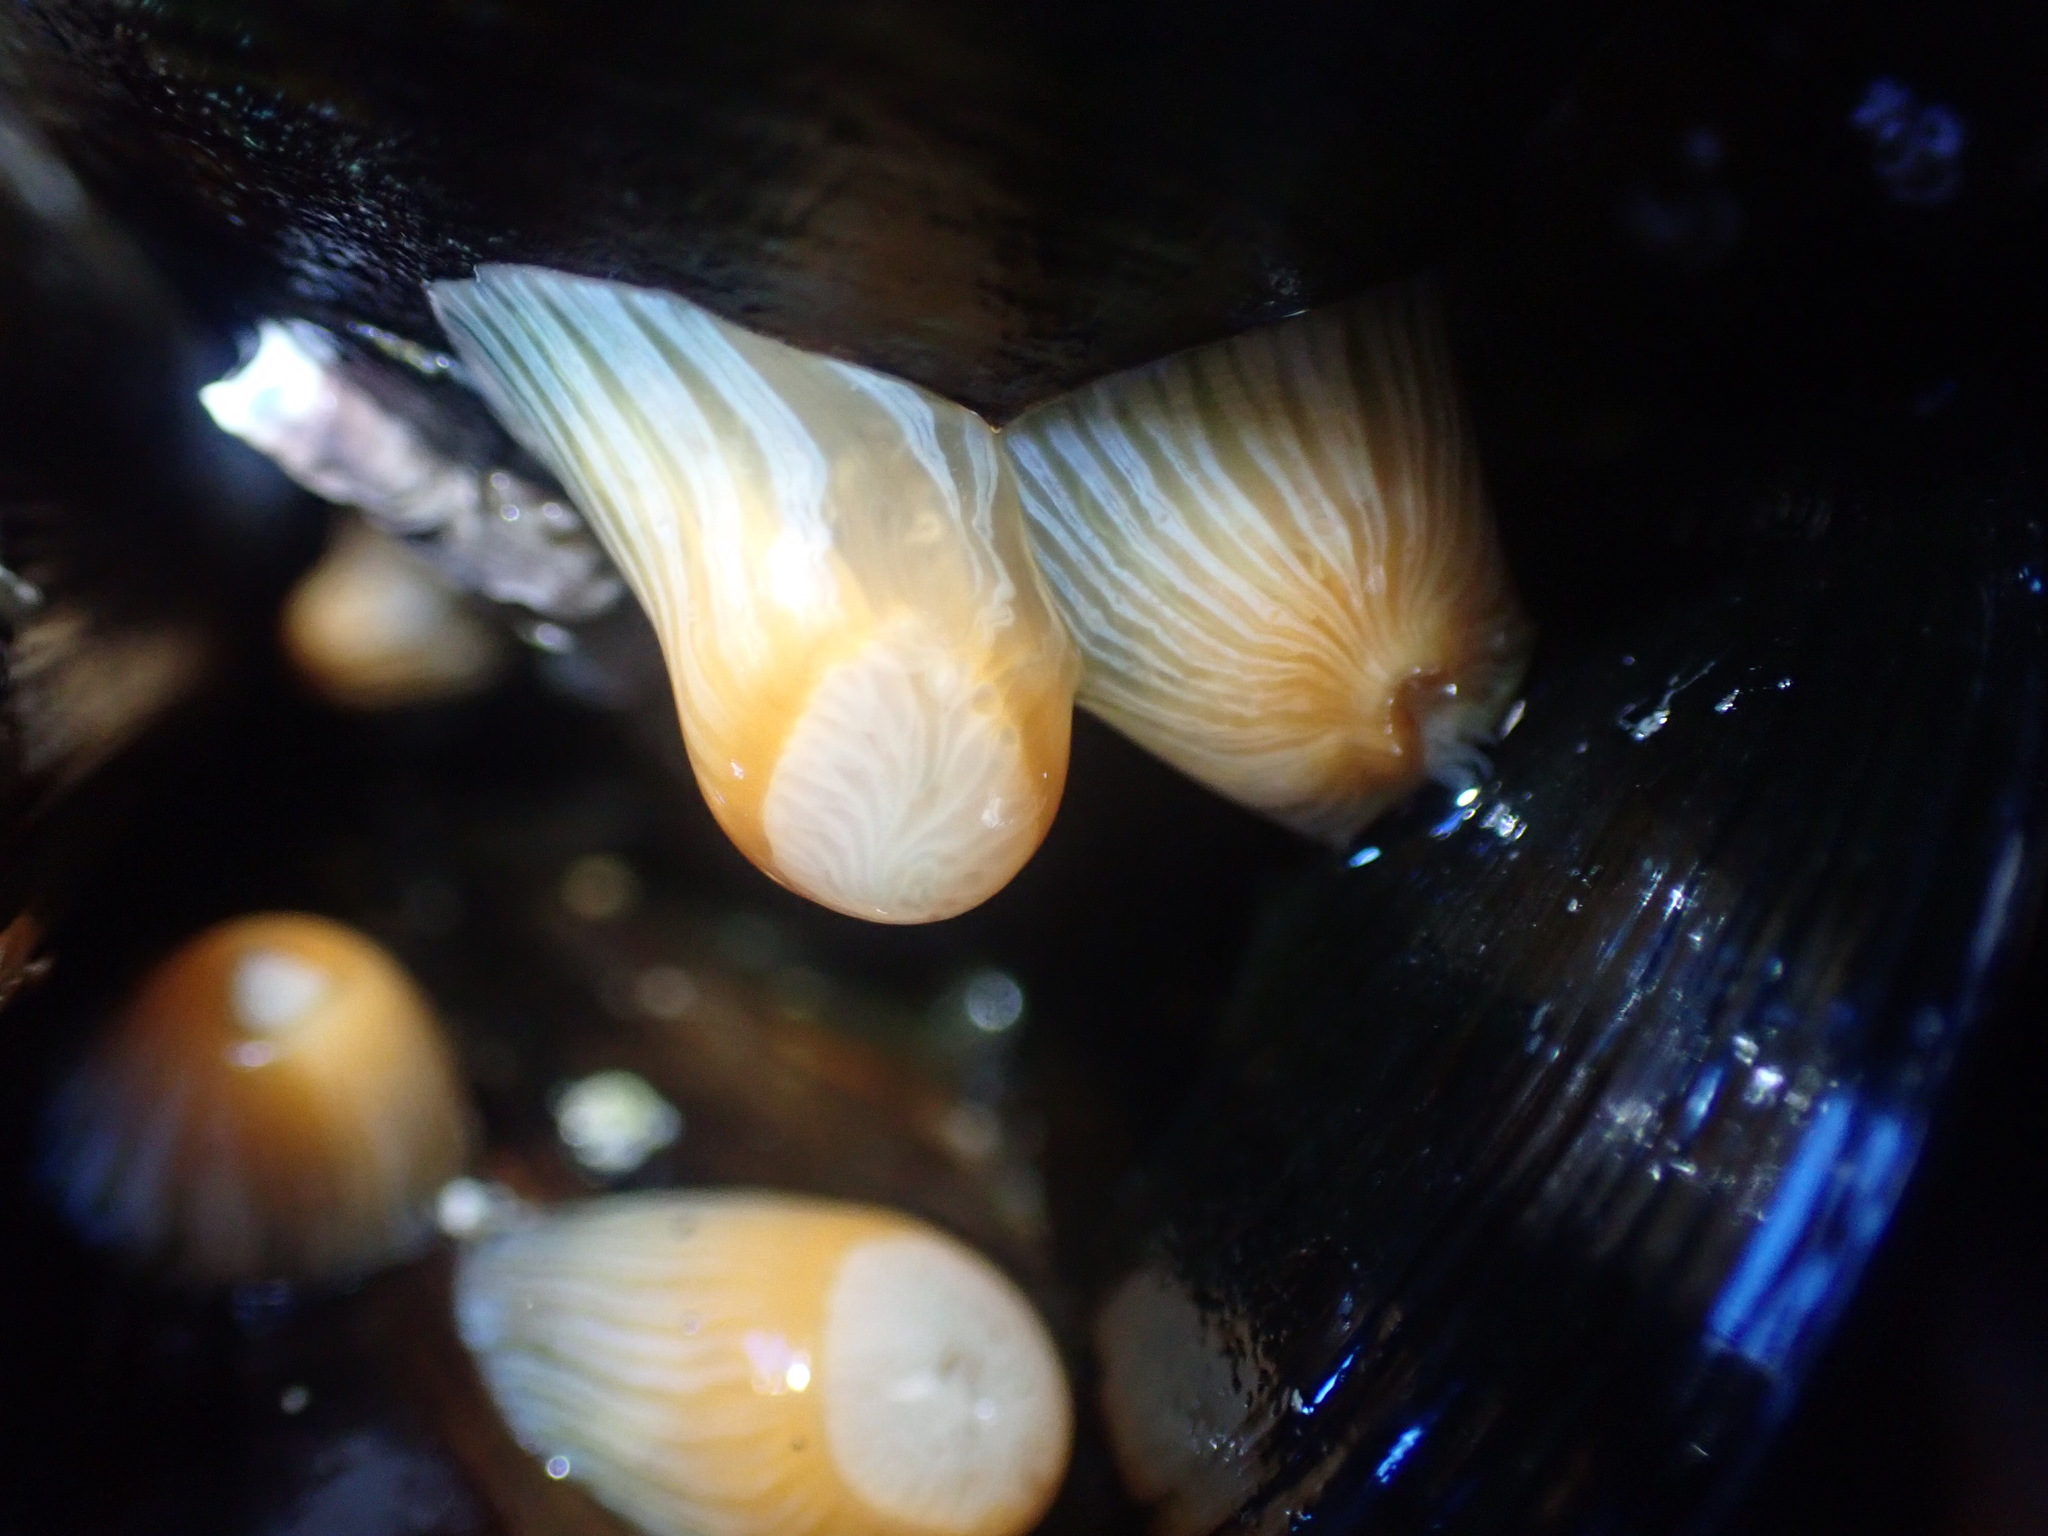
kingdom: Animalia
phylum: Cnidaria
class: Anthozoa
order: Actiniaria
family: Sagartiidae
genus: Anthothoe
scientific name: Anthothoe albocincta
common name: Orange striped anemone
